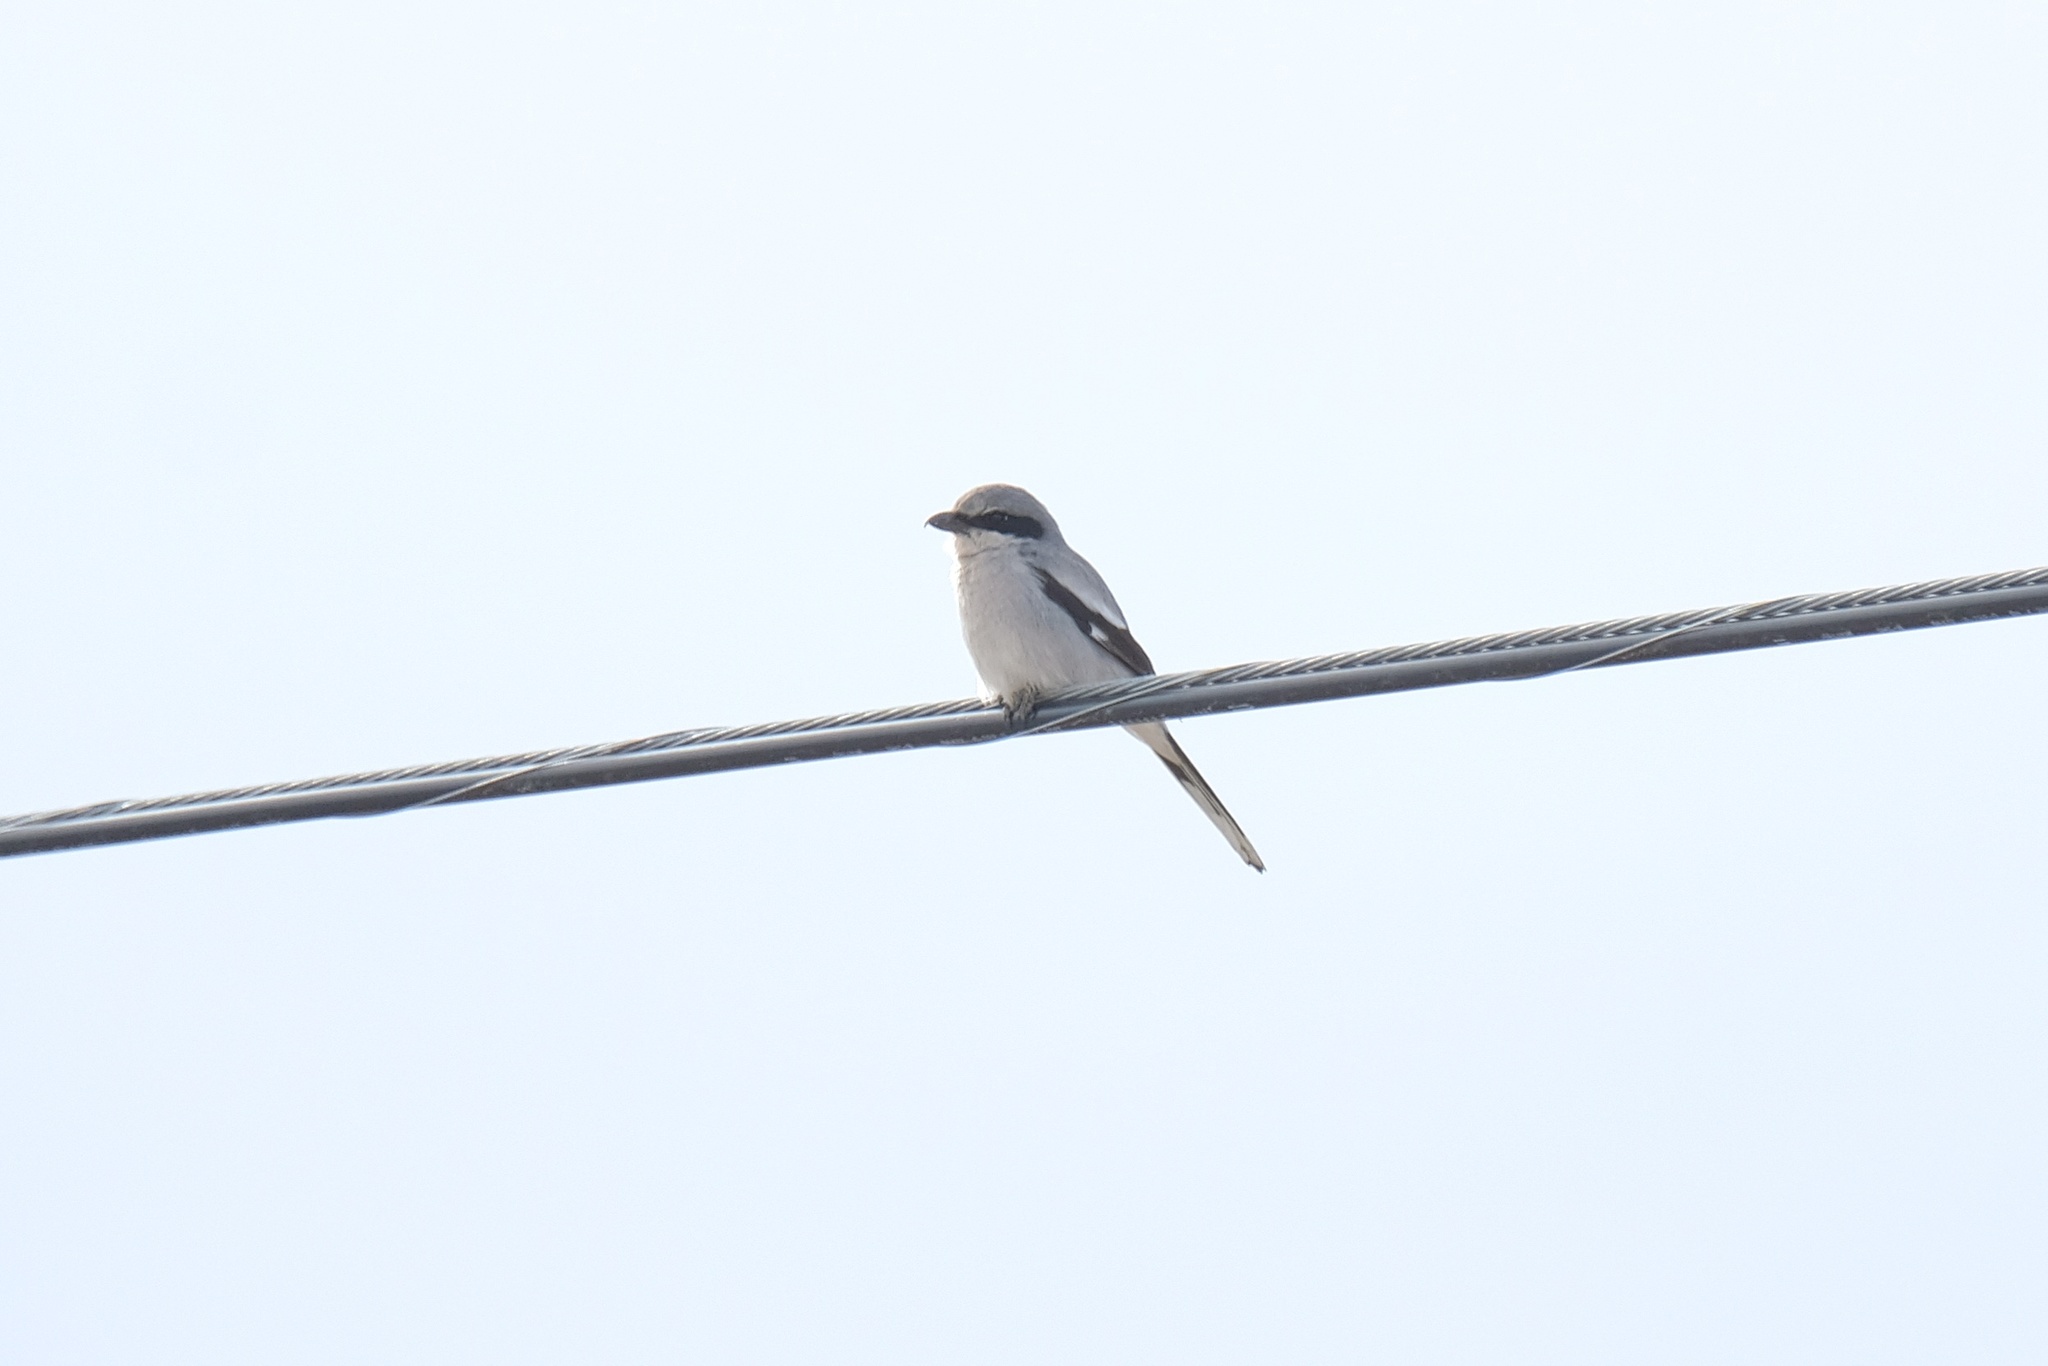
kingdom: Animalia
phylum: Chordata
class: Aves
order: Passeriformes
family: Laniidae
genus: Lanius
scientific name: Lanius ludovicianus
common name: Loggerhead shrike
